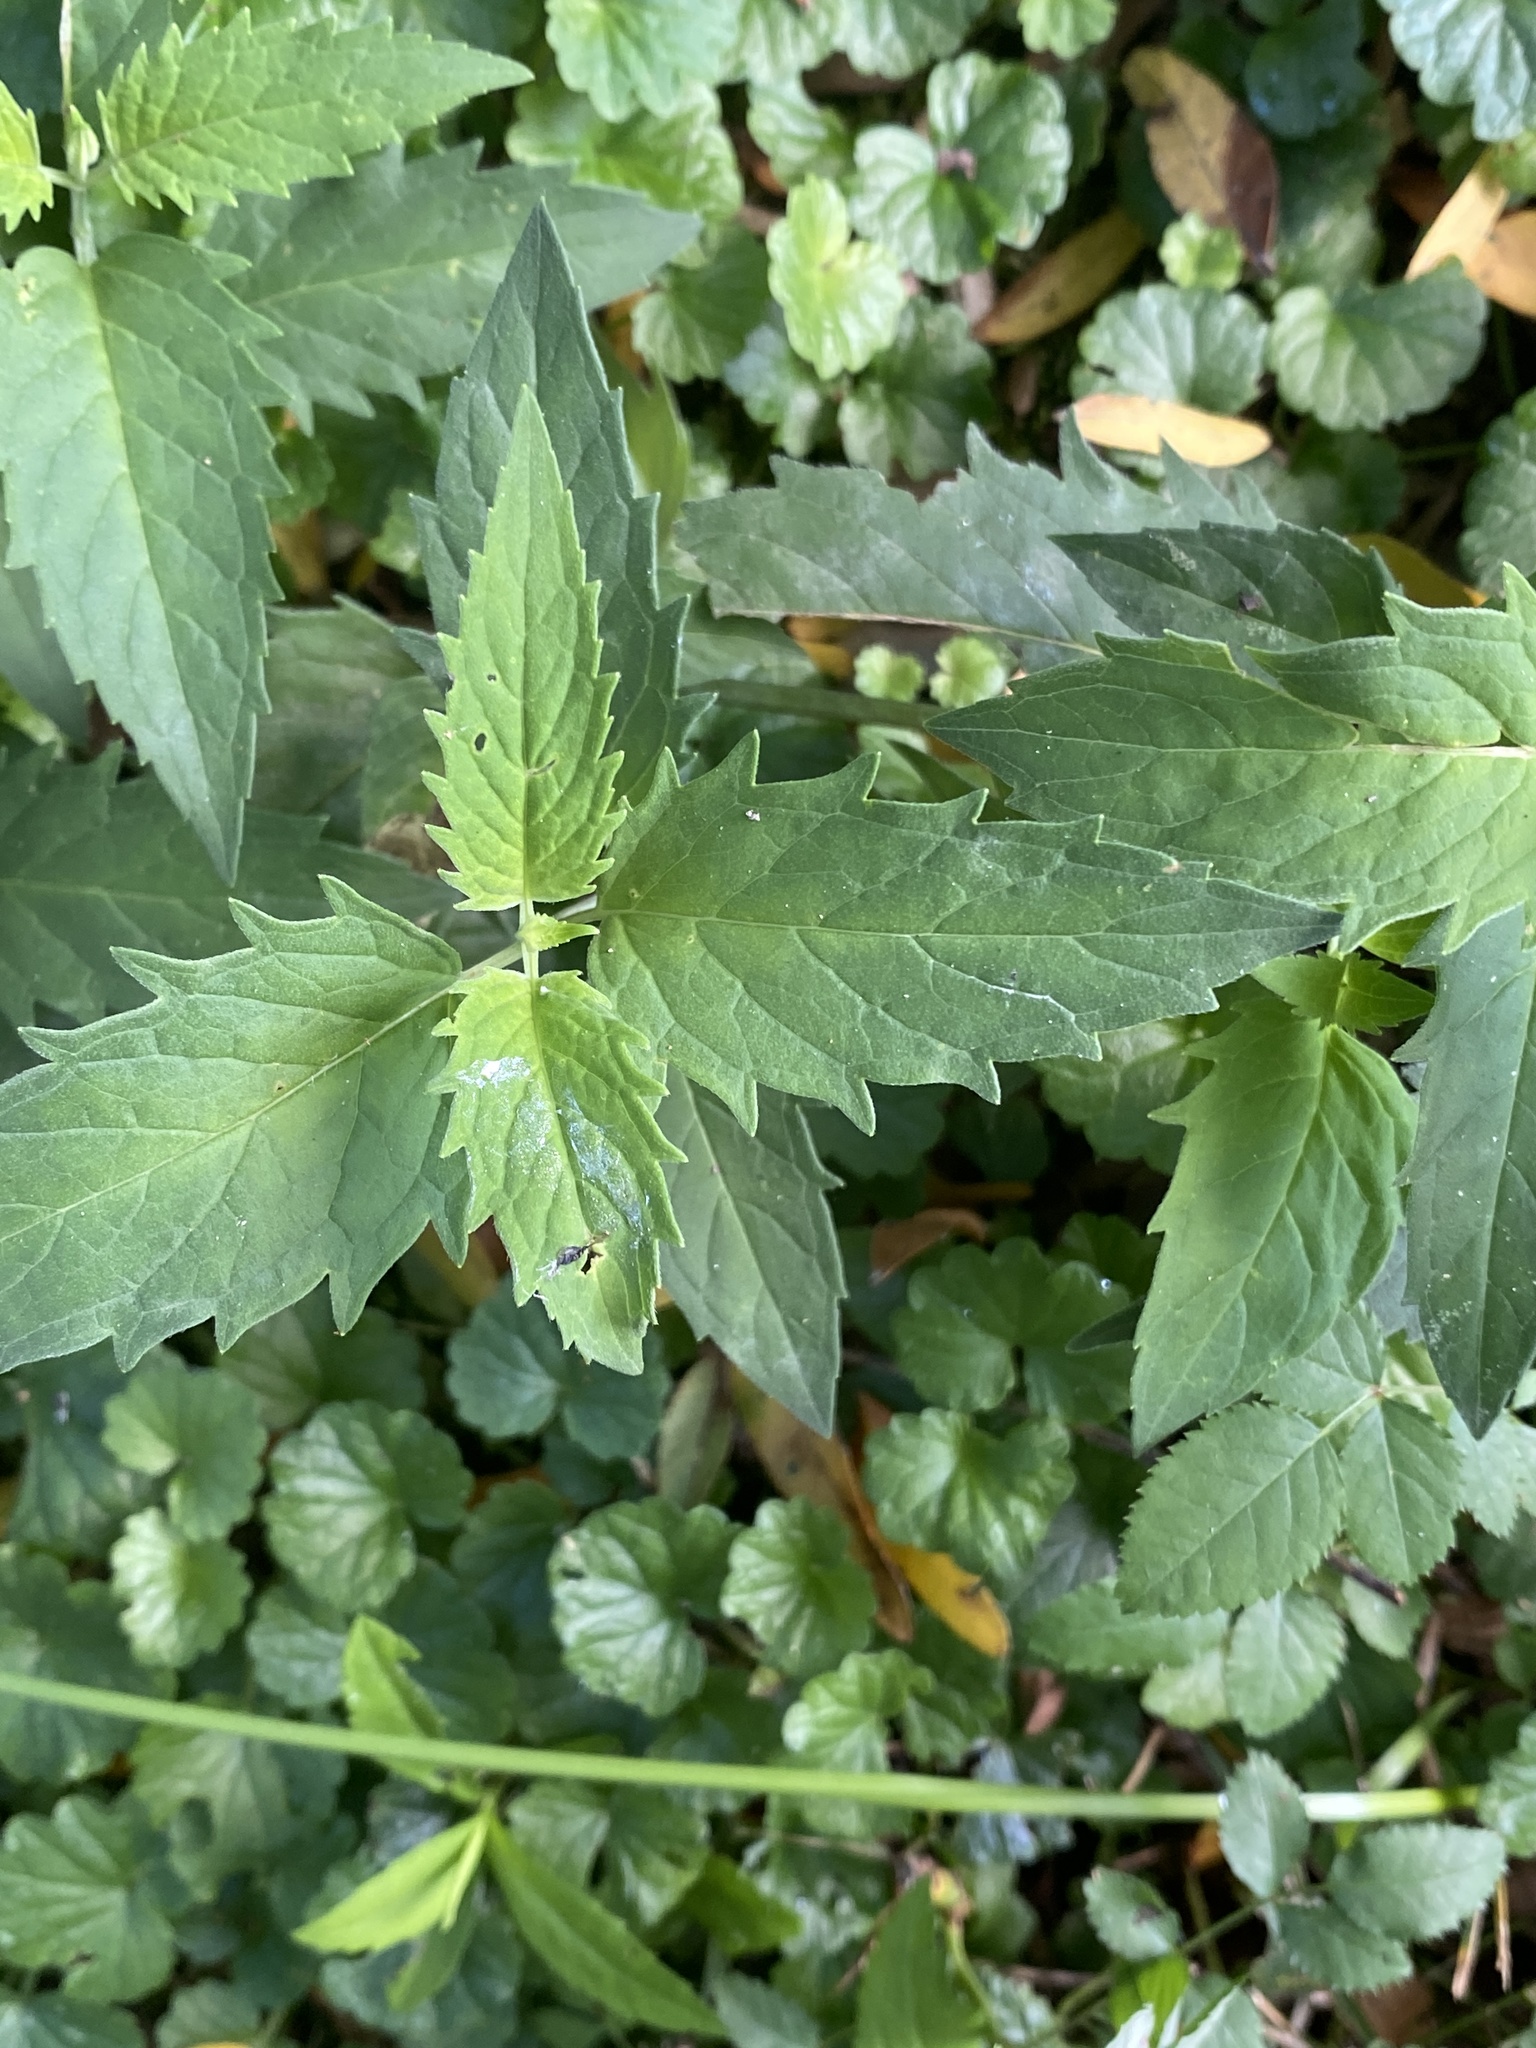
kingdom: Plantae
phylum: Tracheophyta
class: Magnoliopsida
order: Asterales
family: Asteraceae
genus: Eupatorium
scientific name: Eupatorium serotinum
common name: Late boneset
